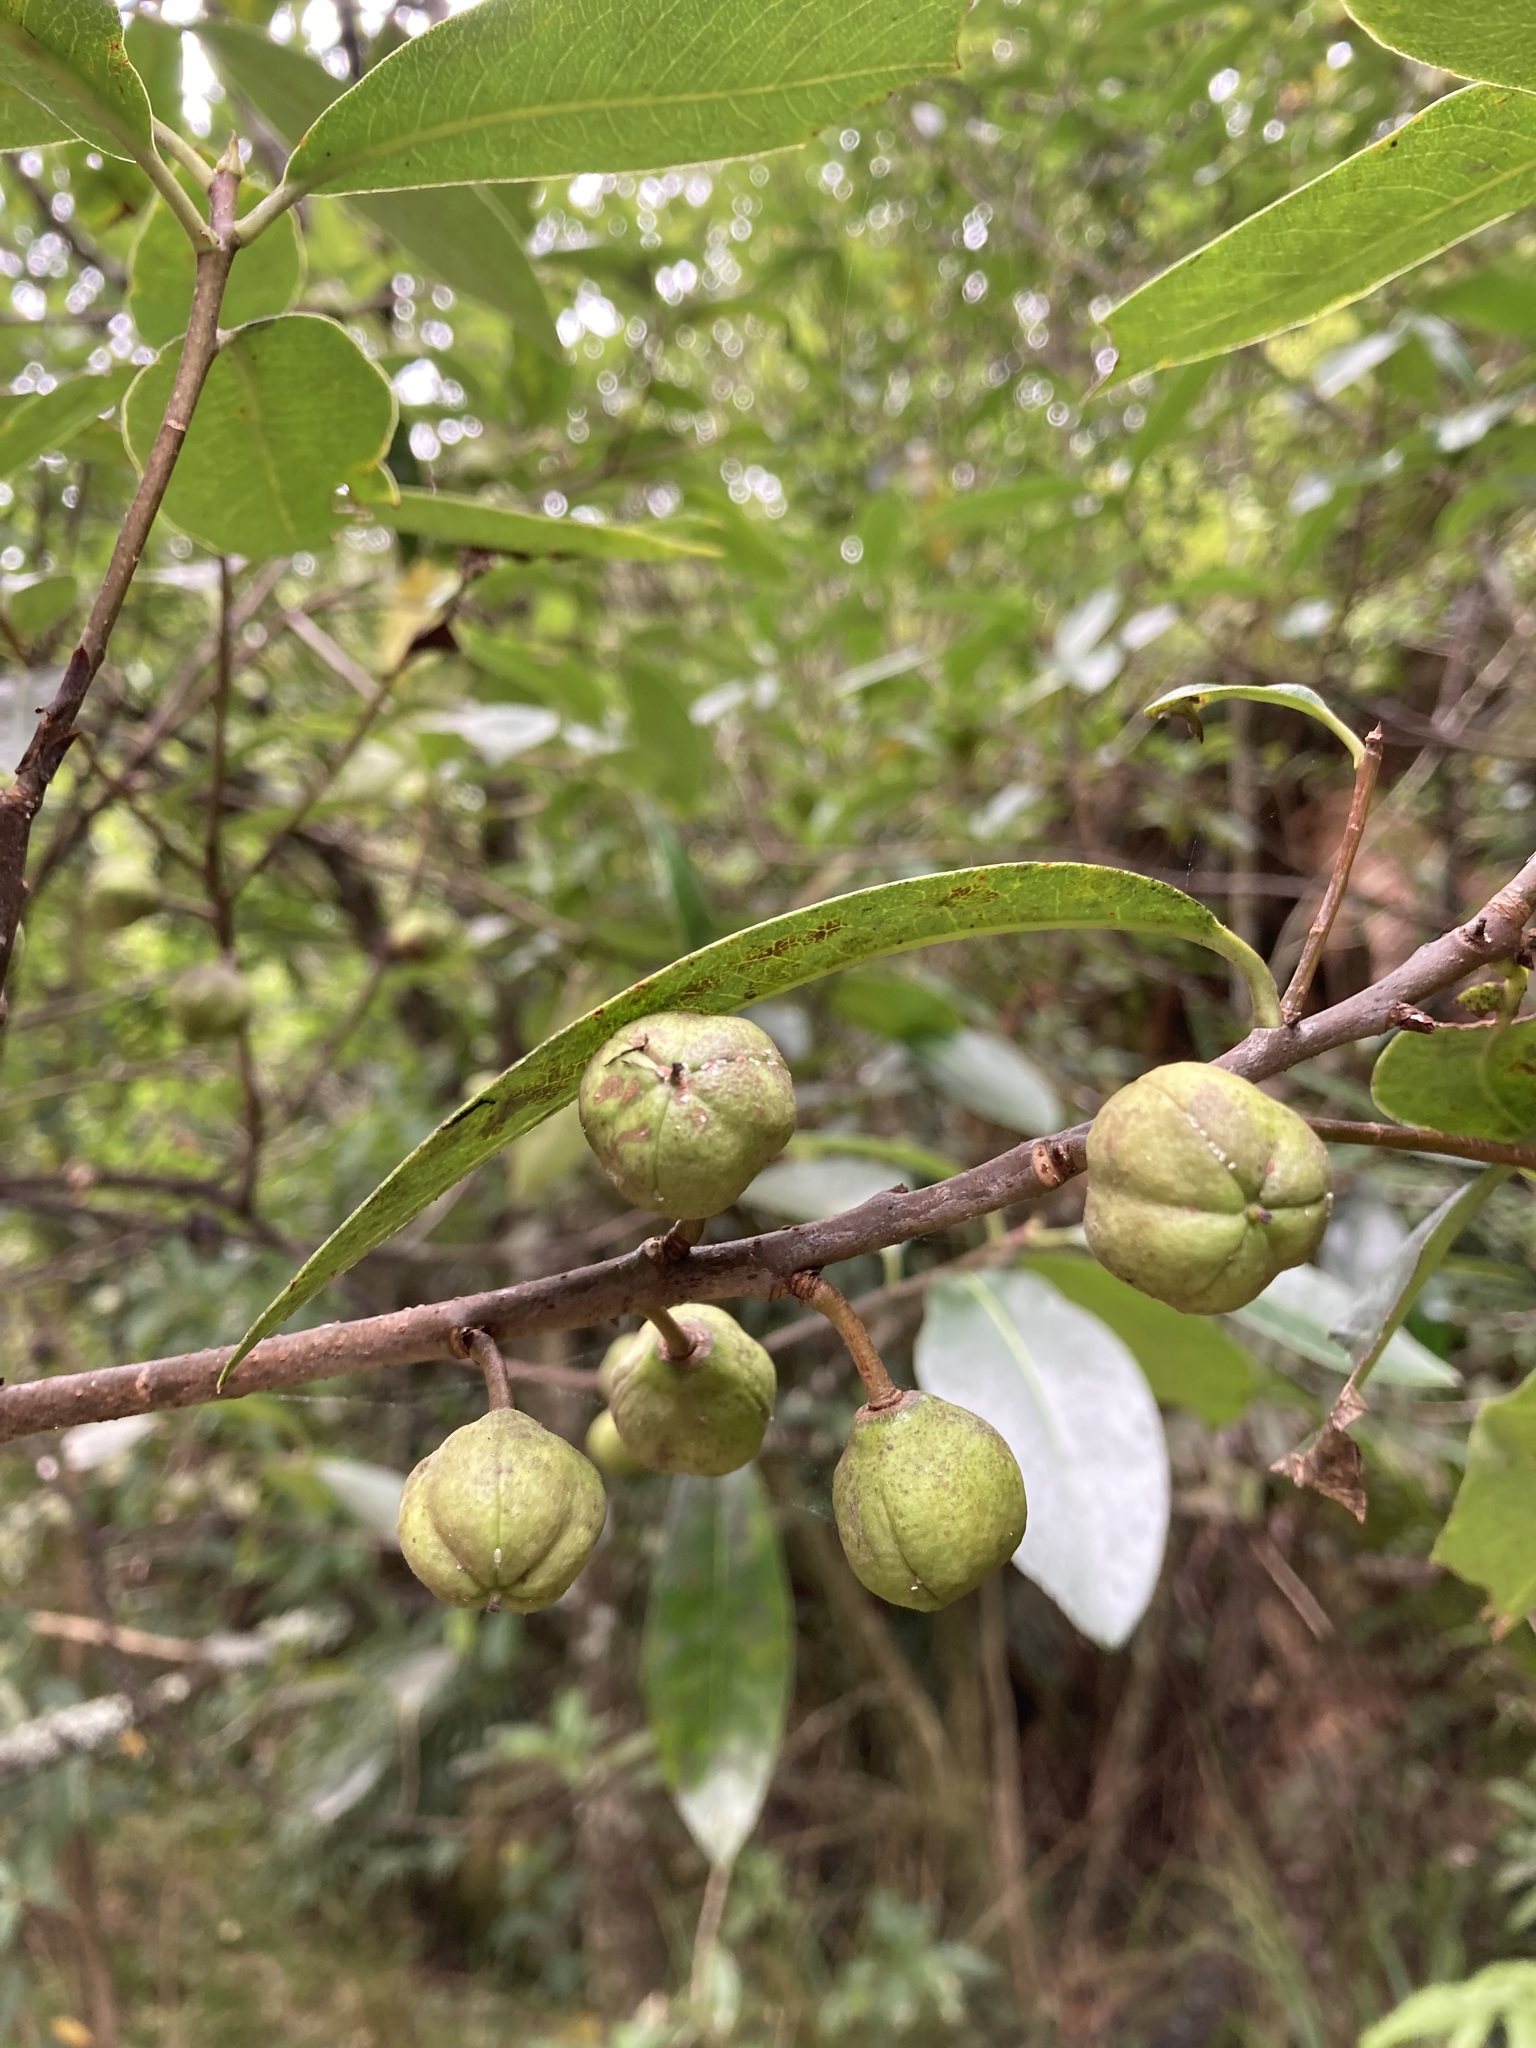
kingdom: Plantae
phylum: Tracheophyta
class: Magnoliopsida
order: Apiales
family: Pittosporaceae
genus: Pittosporum
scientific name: Pittosporum colensoi
